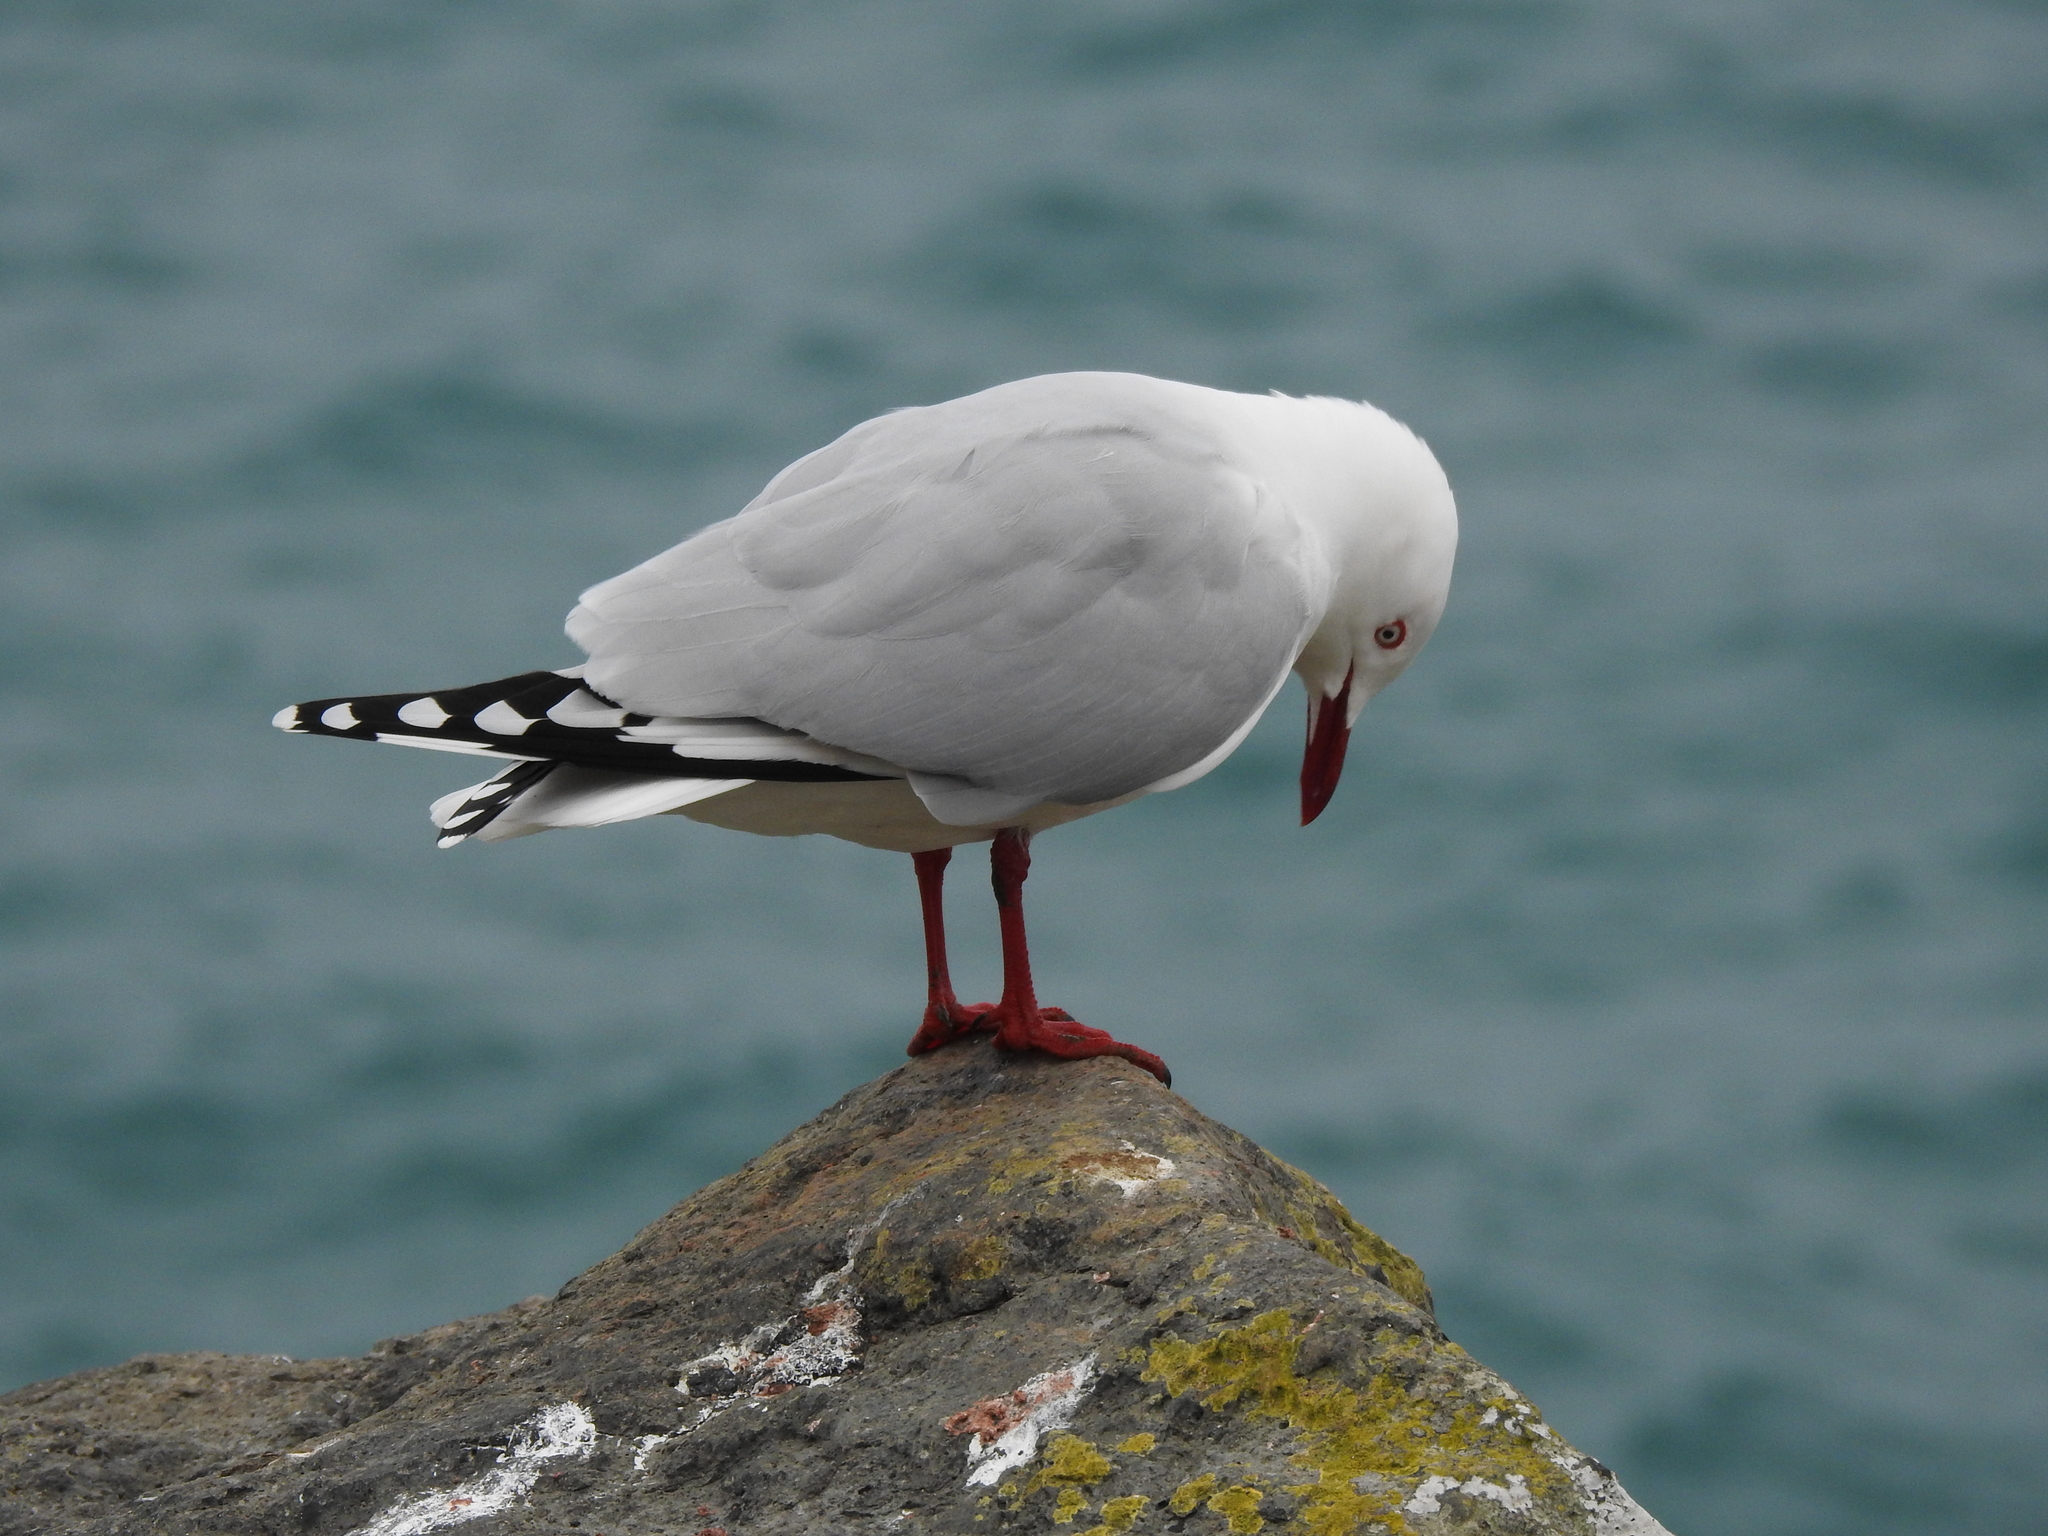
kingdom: Animalia
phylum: Chordata
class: Aves
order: Charadriiformes
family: Laridae
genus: Chroicocephalus
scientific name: Chroicocephalus novaehollandiae
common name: Silver gull
